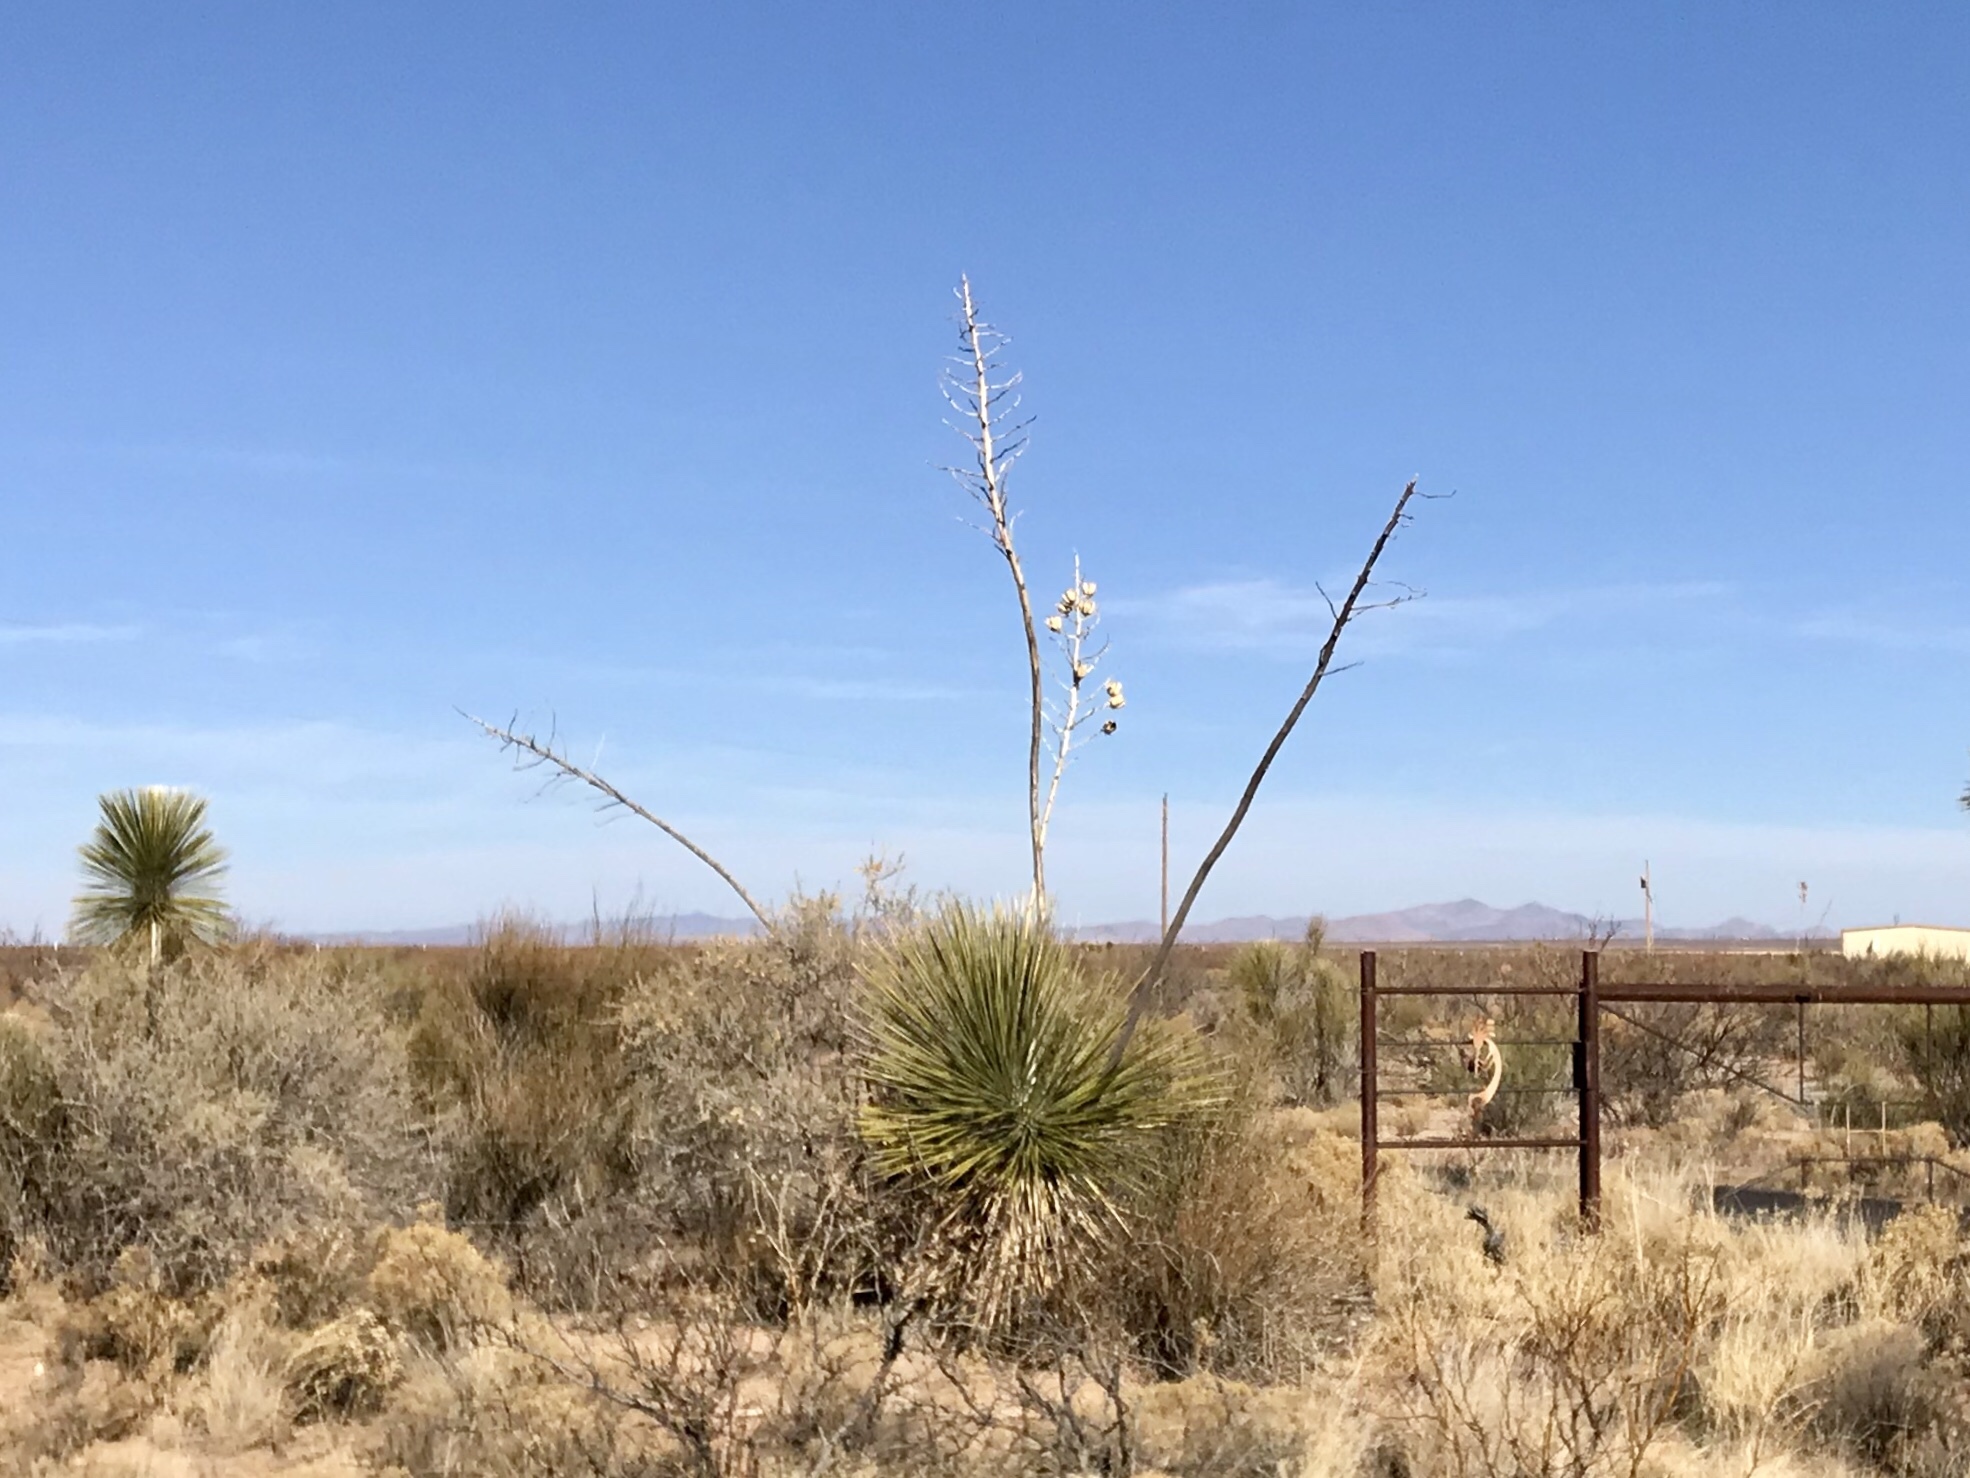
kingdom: Plantae
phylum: Tracheophyta
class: Liliopsida
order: Asparagales
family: Asparagaceae
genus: Yucca
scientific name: Yucca elata
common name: Palmella
